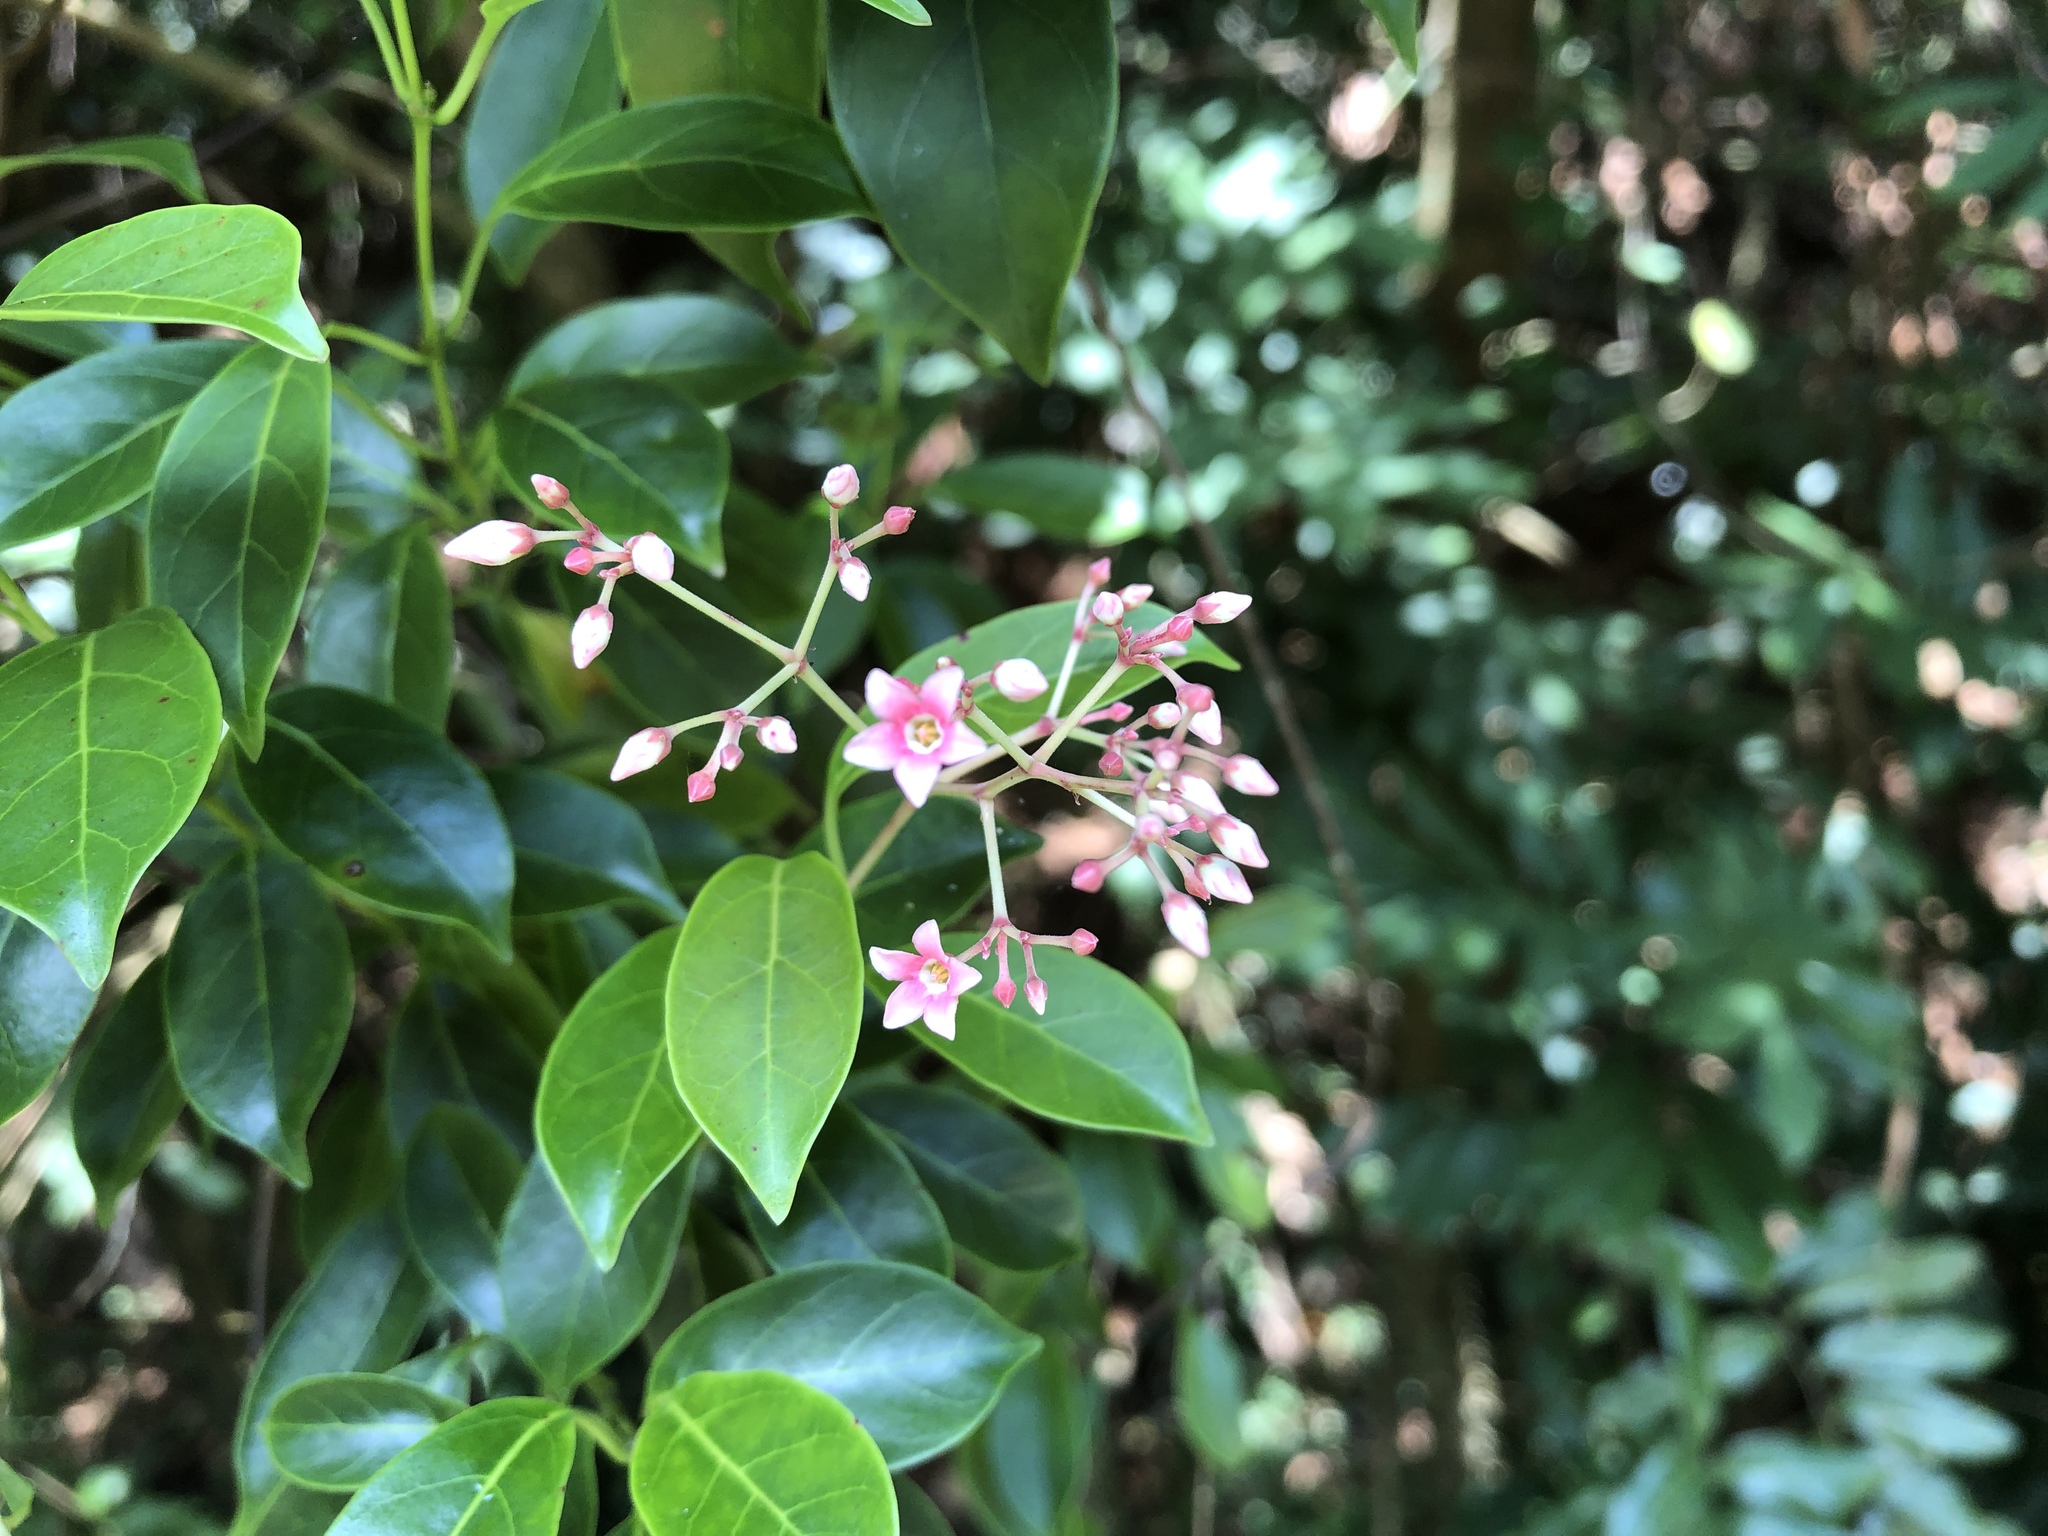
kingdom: Plantae
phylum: Tracheophyta
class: Magnoliopsida
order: Gentianales
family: Apocynaceae
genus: Urceola
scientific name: Urceola rosea
